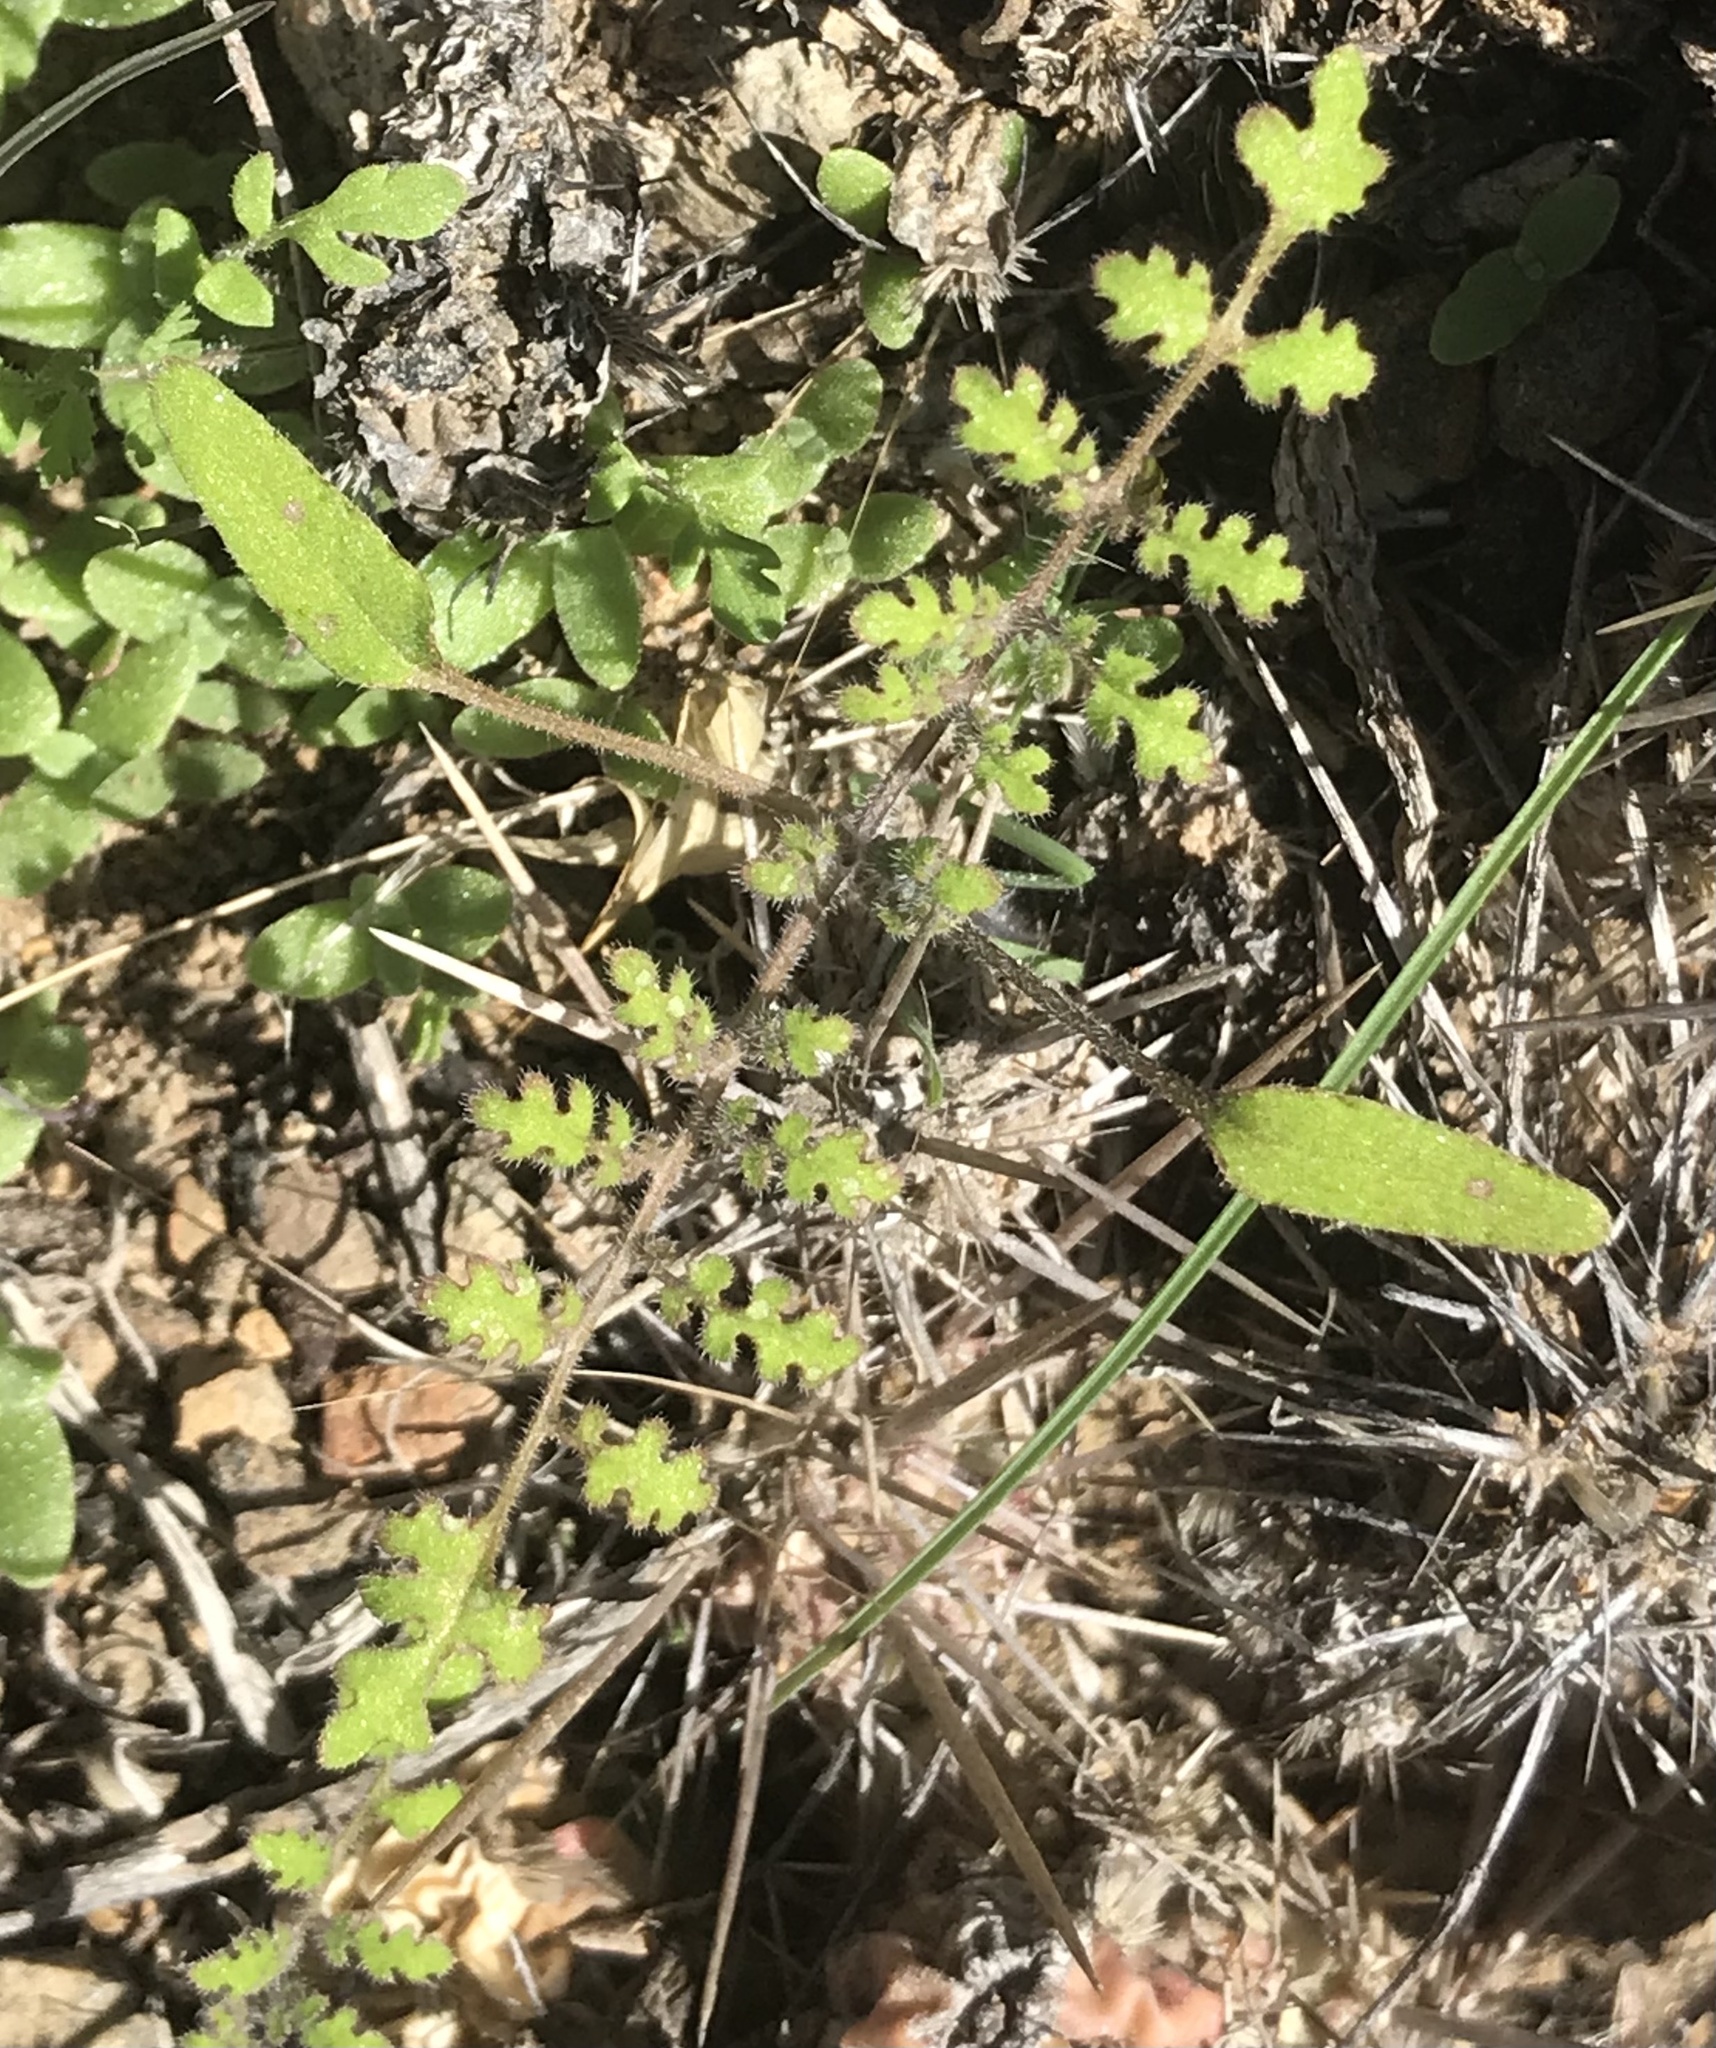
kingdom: Plantae
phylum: Tracheophyta
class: Magnoliopsida
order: Boraginales
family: Hydrophyllaceae
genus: Phacelia
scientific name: Phacelia distans
